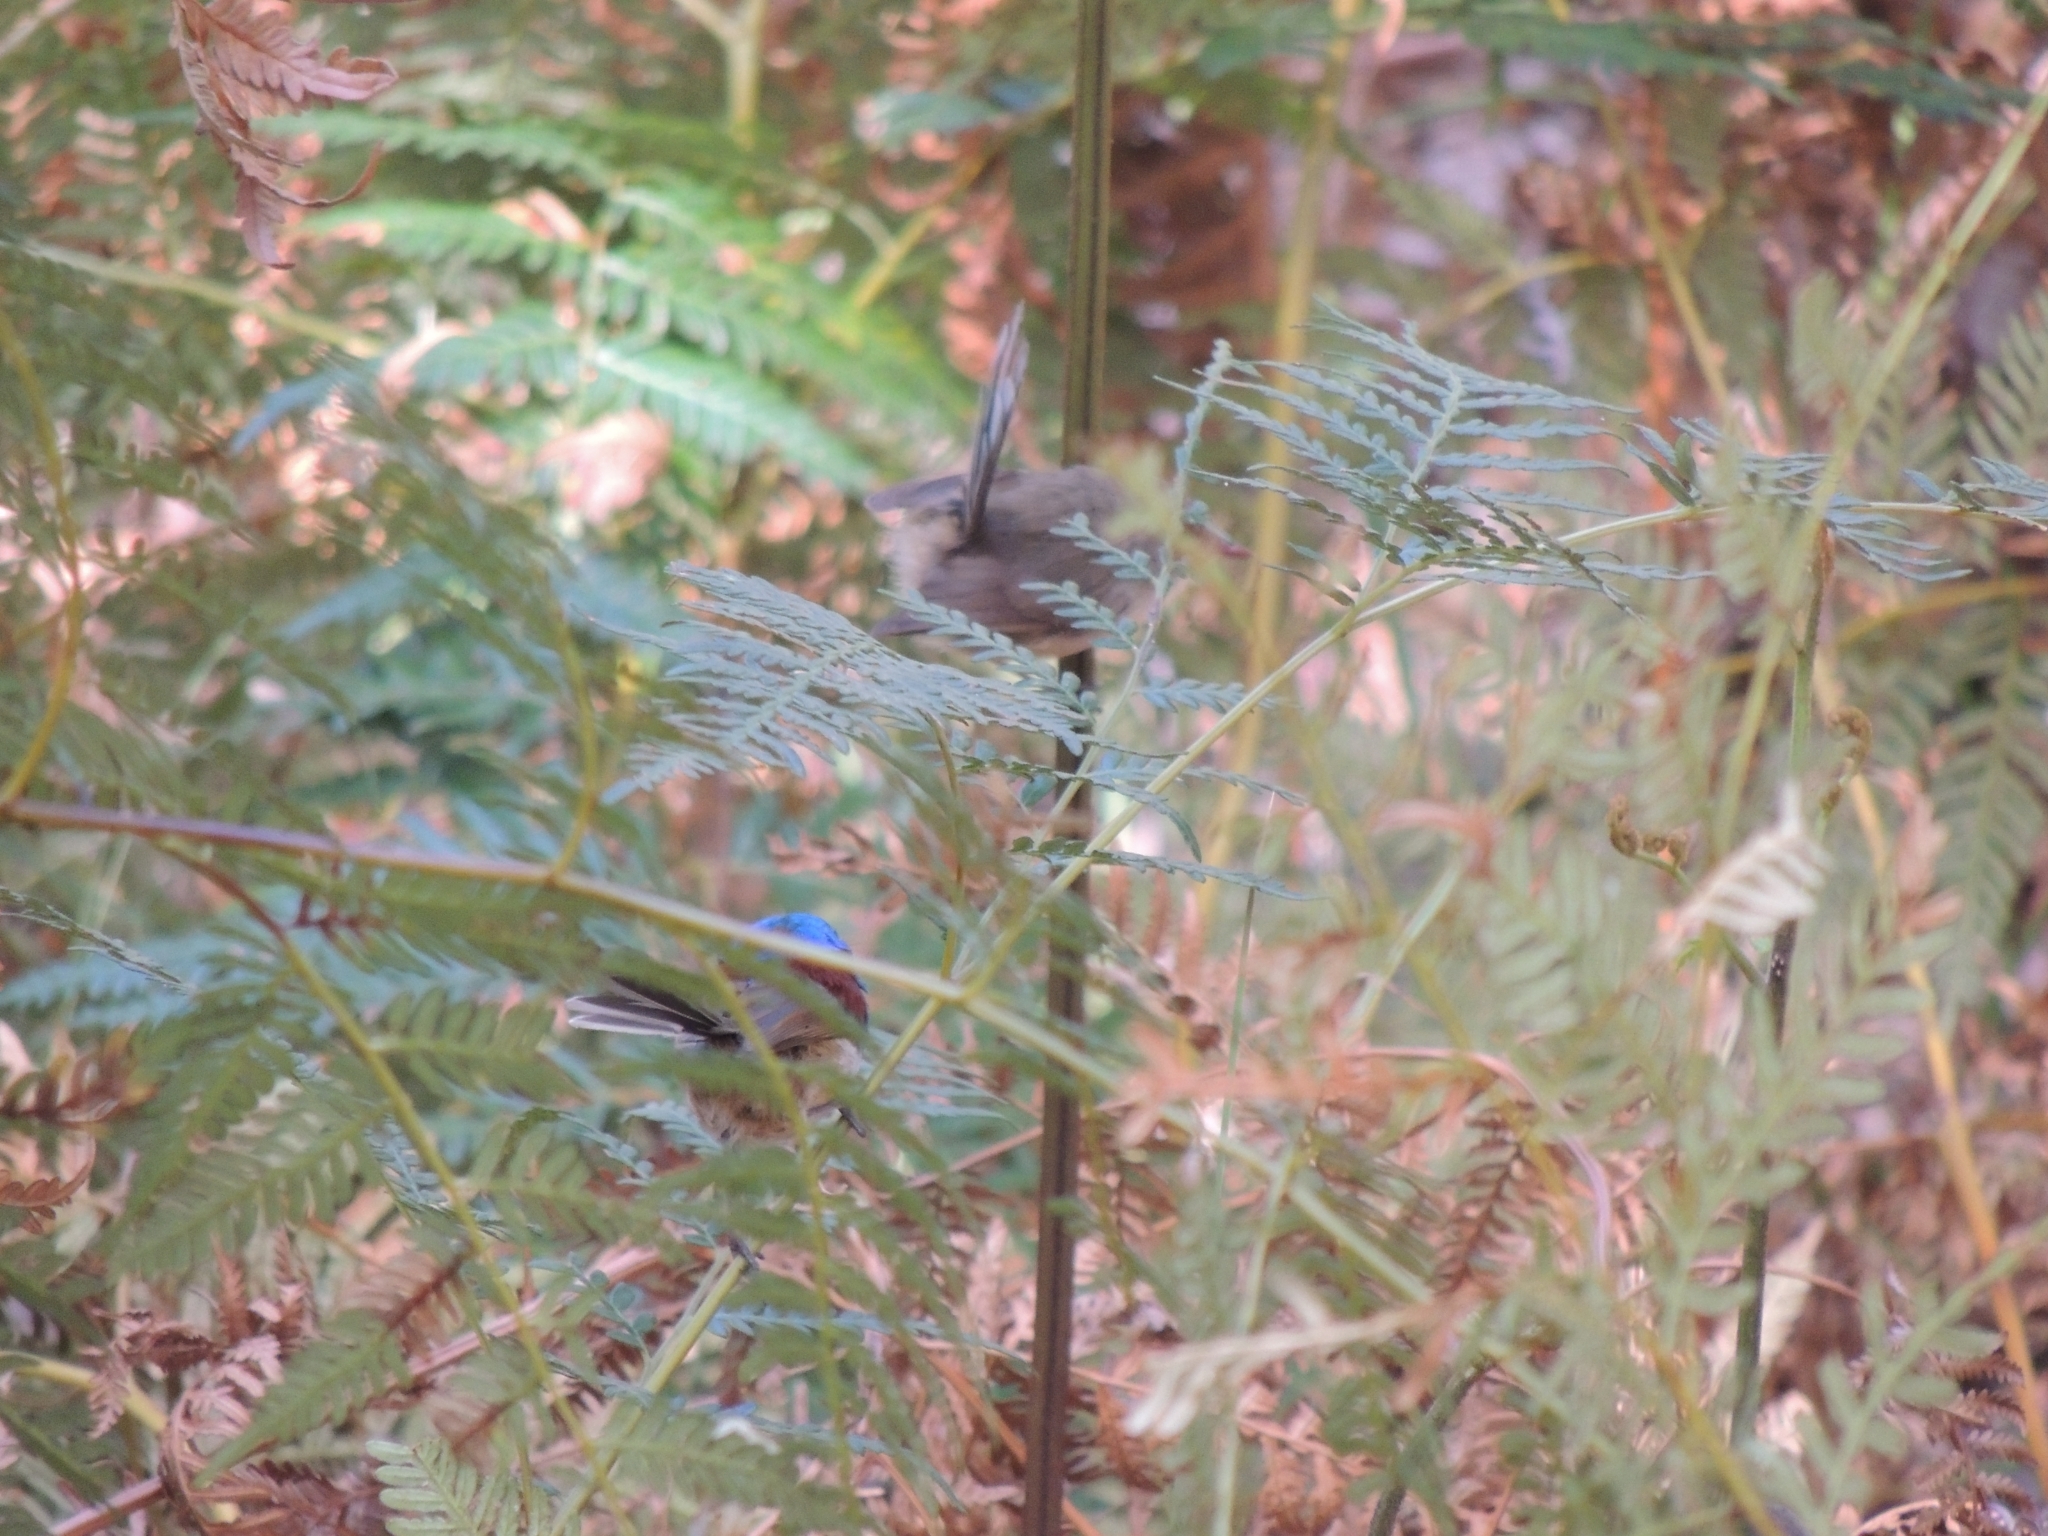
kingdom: Animalia
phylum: Chordata
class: Aves
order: Passeriformes
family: Maluridae
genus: Malurus
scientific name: Malurus lamberti
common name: Variegated fairywren
